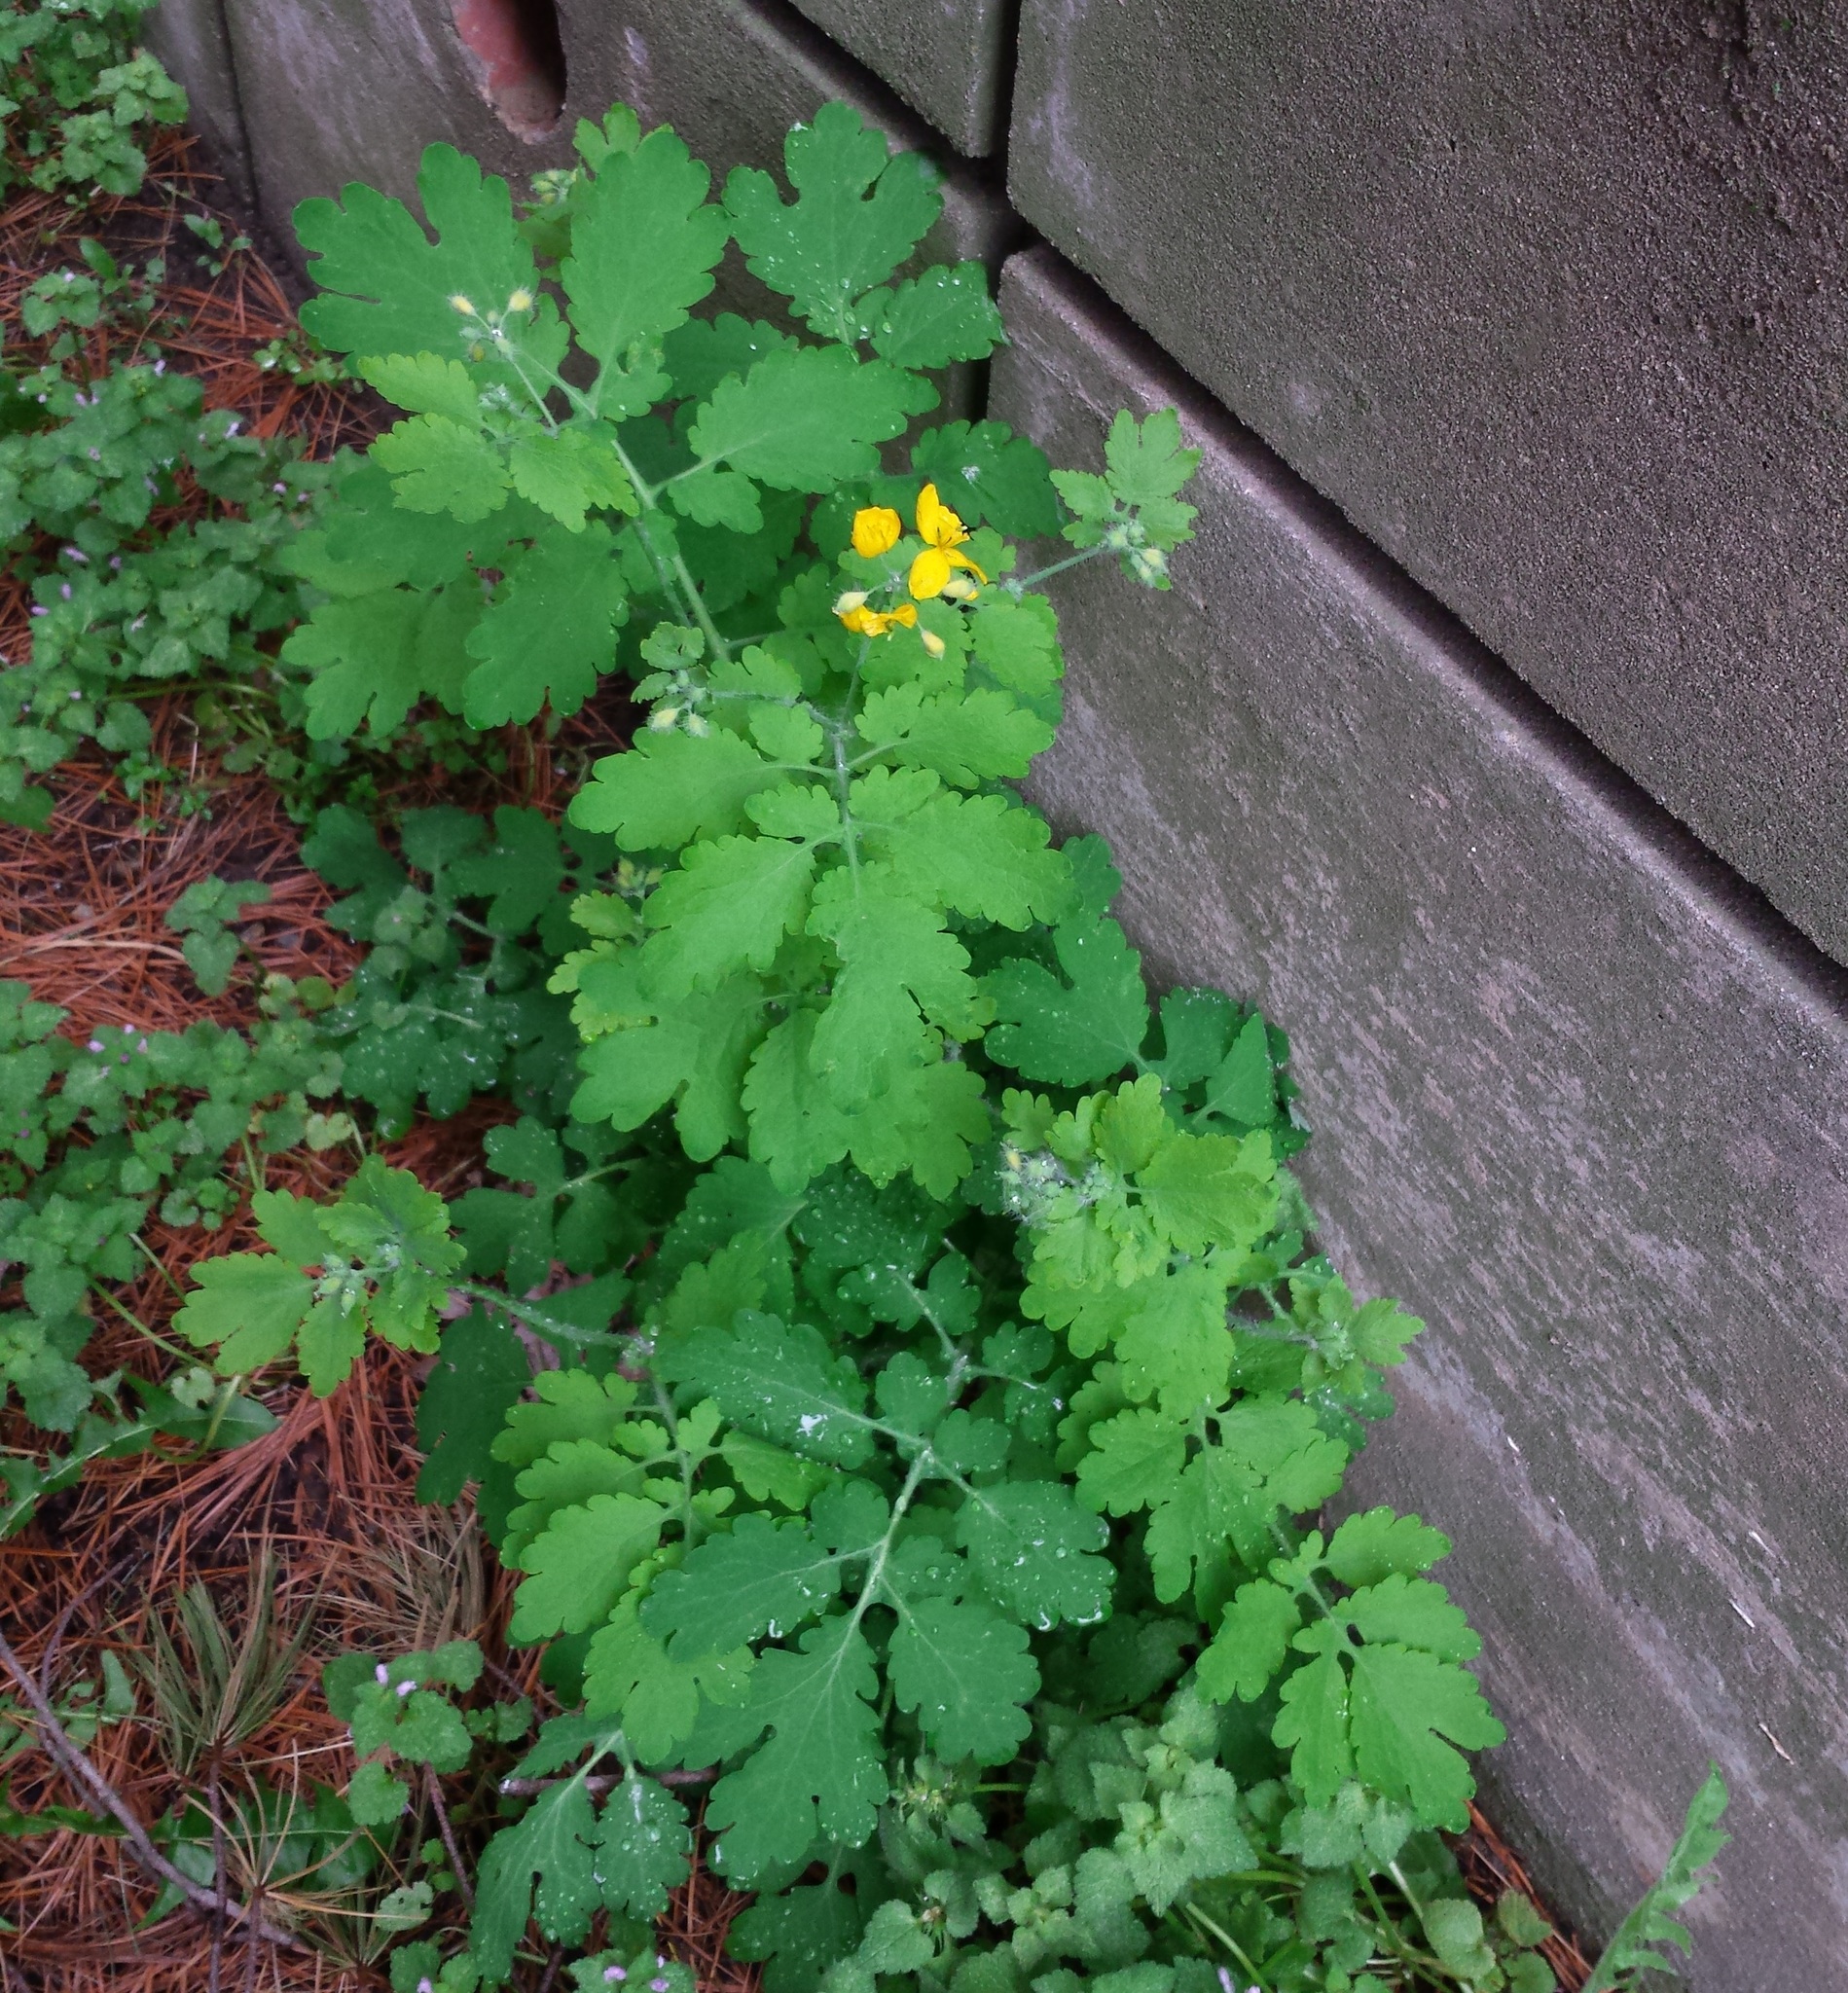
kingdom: Plantae
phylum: Tracheophyta
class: Magnoliopsida
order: Ranunculales
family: Papaveraceae
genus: Chelidonium
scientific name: Chelidonium majus
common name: Greater celandine
